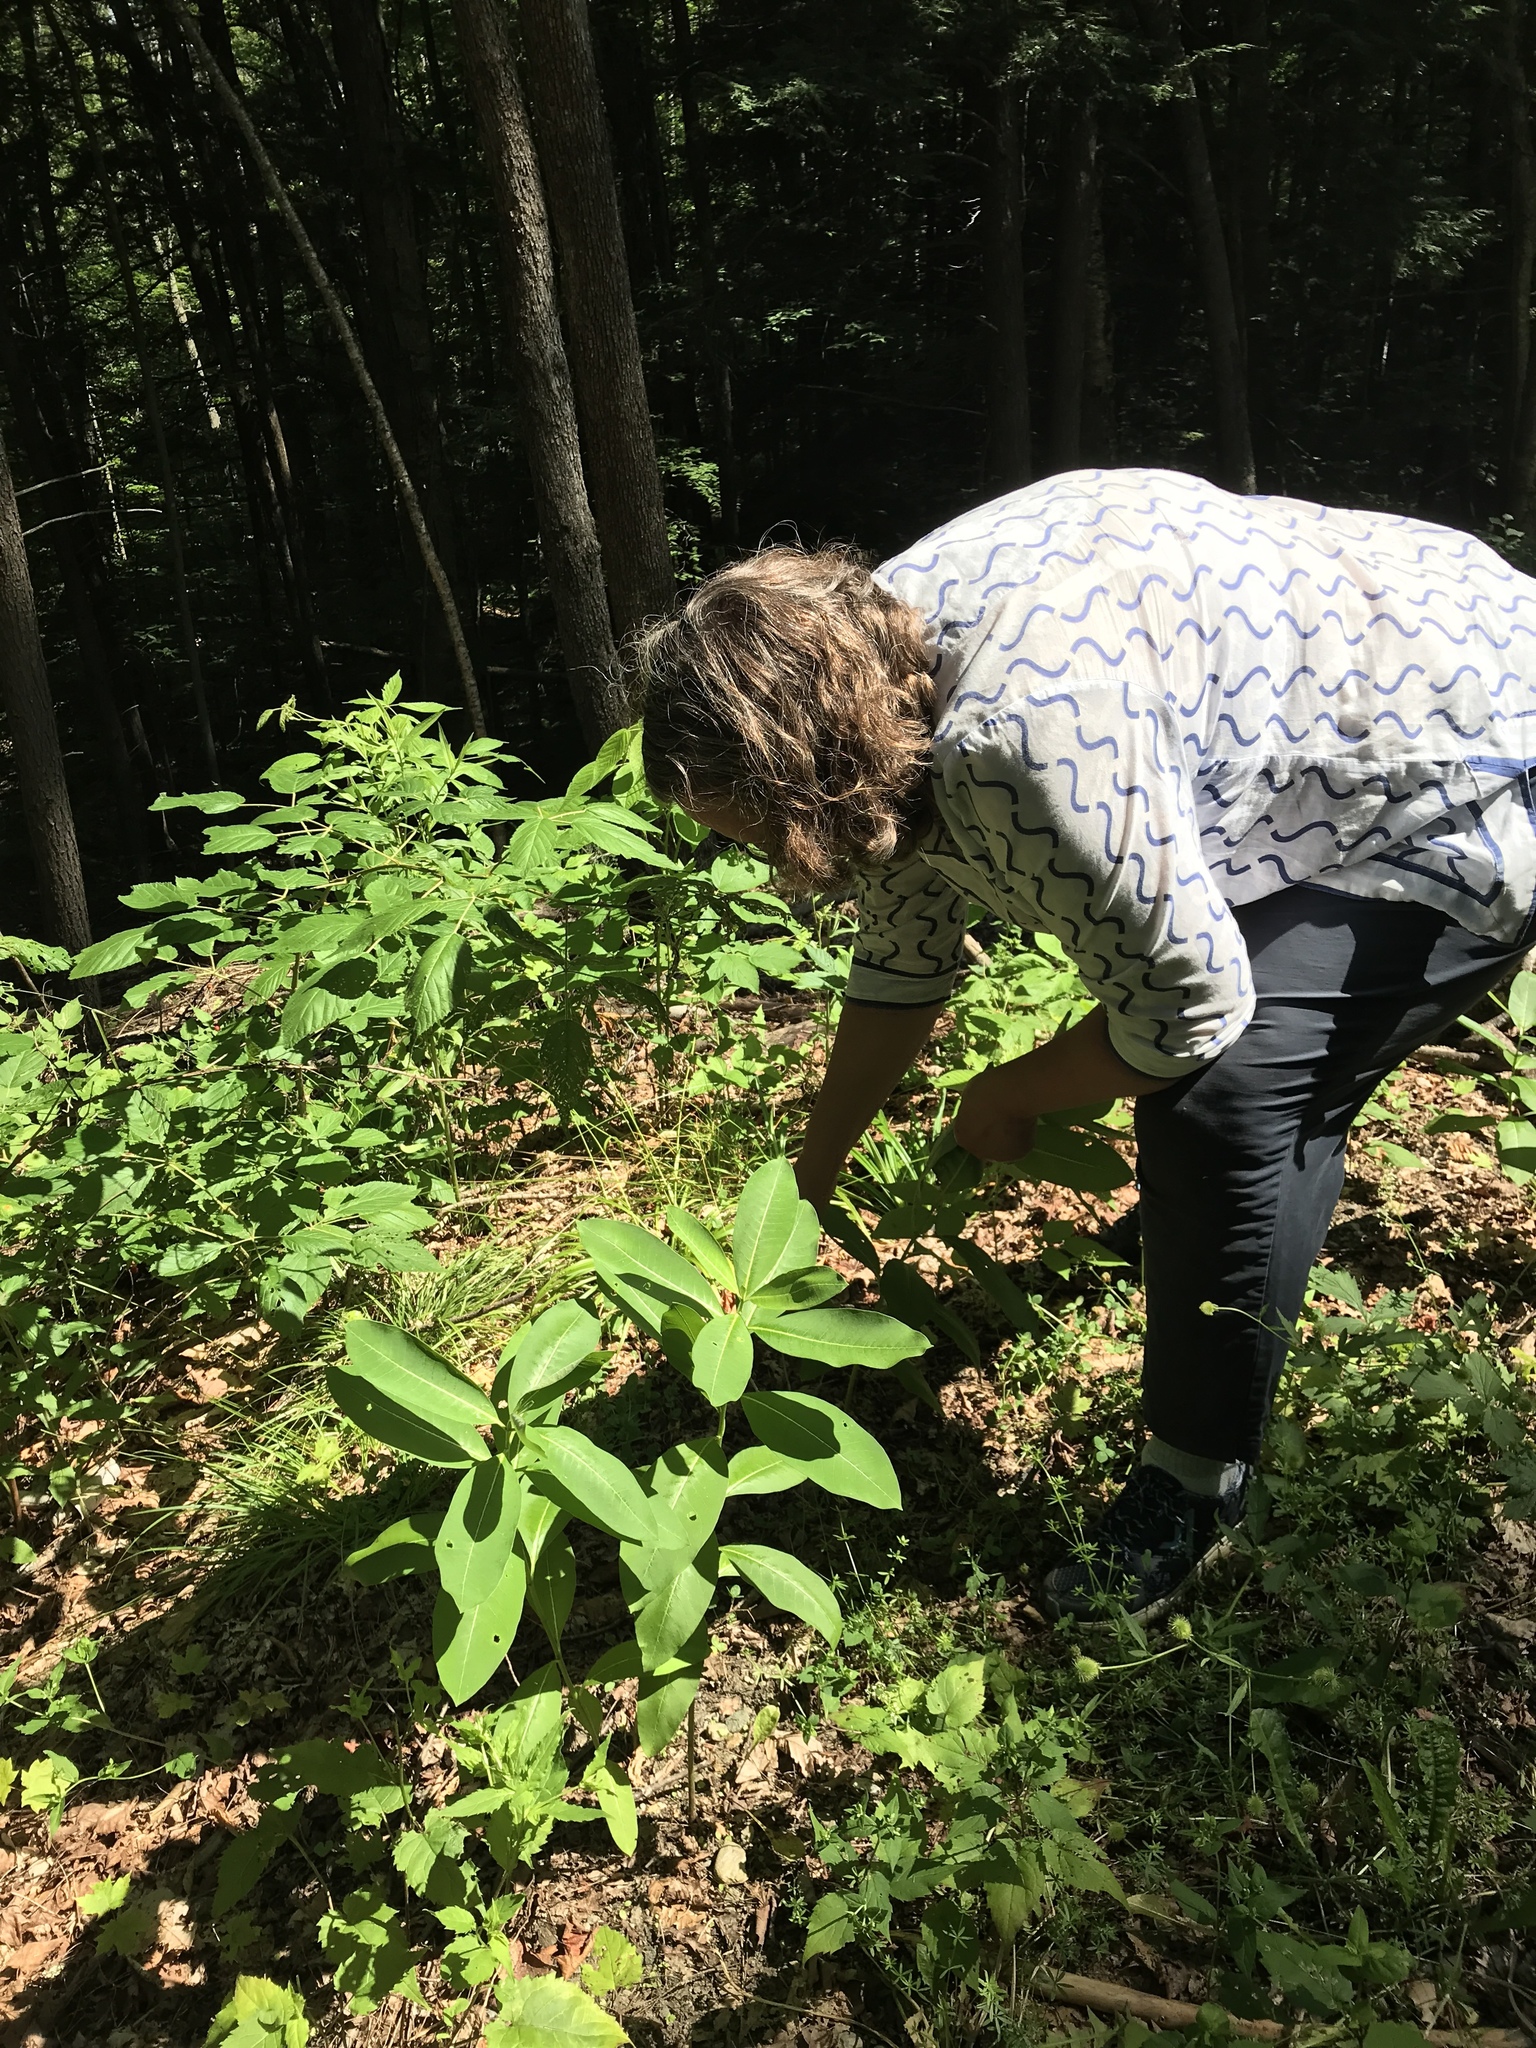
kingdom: Plantae
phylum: Tracheophyta
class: Magnoliopsida
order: Gentianales
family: Apocynaceae
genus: Asclepias
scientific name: Asclepias syriaca
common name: Common milkweed
